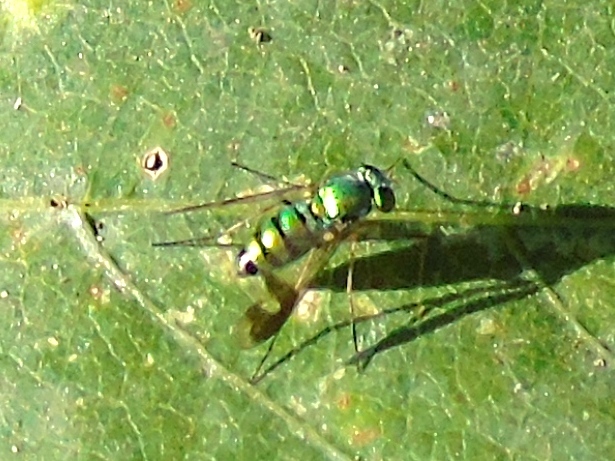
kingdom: Animalia
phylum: Arthropoda
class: Insecta
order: Diptera
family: Dolichopodidae
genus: Condylostylus
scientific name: Condylostylus
